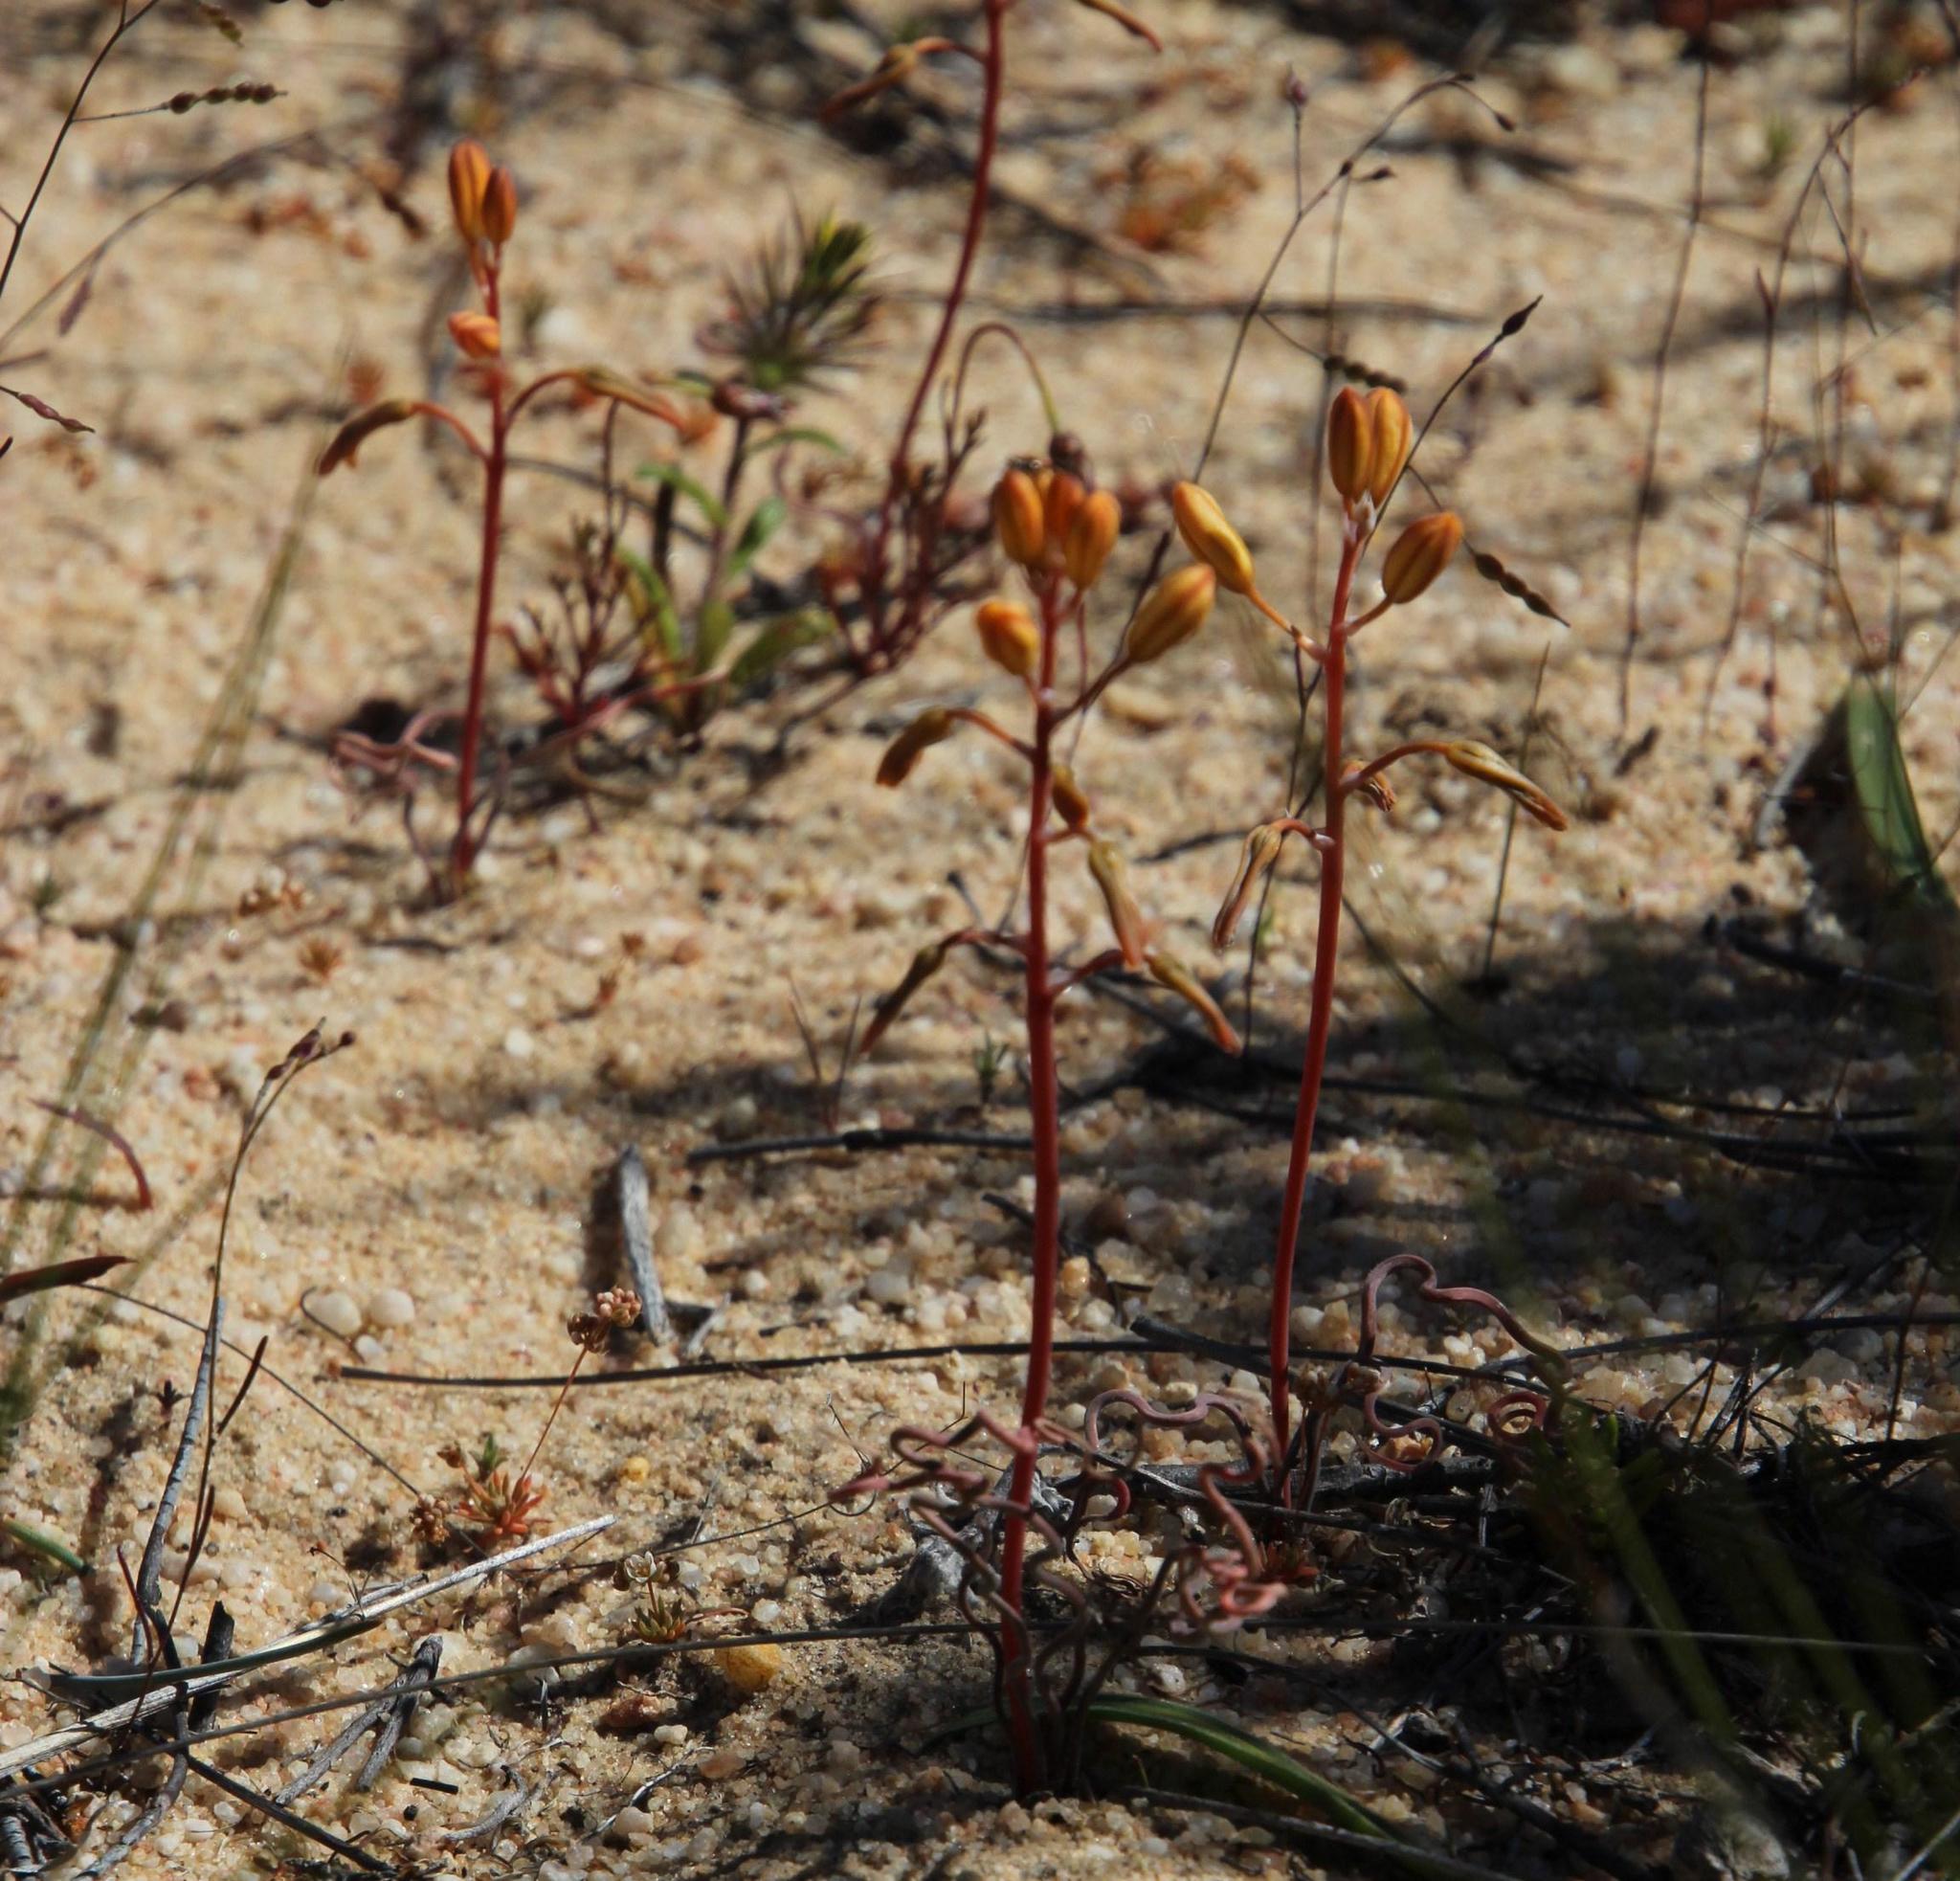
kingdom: Plantae
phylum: Tracheophyta
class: Liliopsida
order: Asparagales
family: Asphodelaceae
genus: Bulbine
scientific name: Bulbine torta
